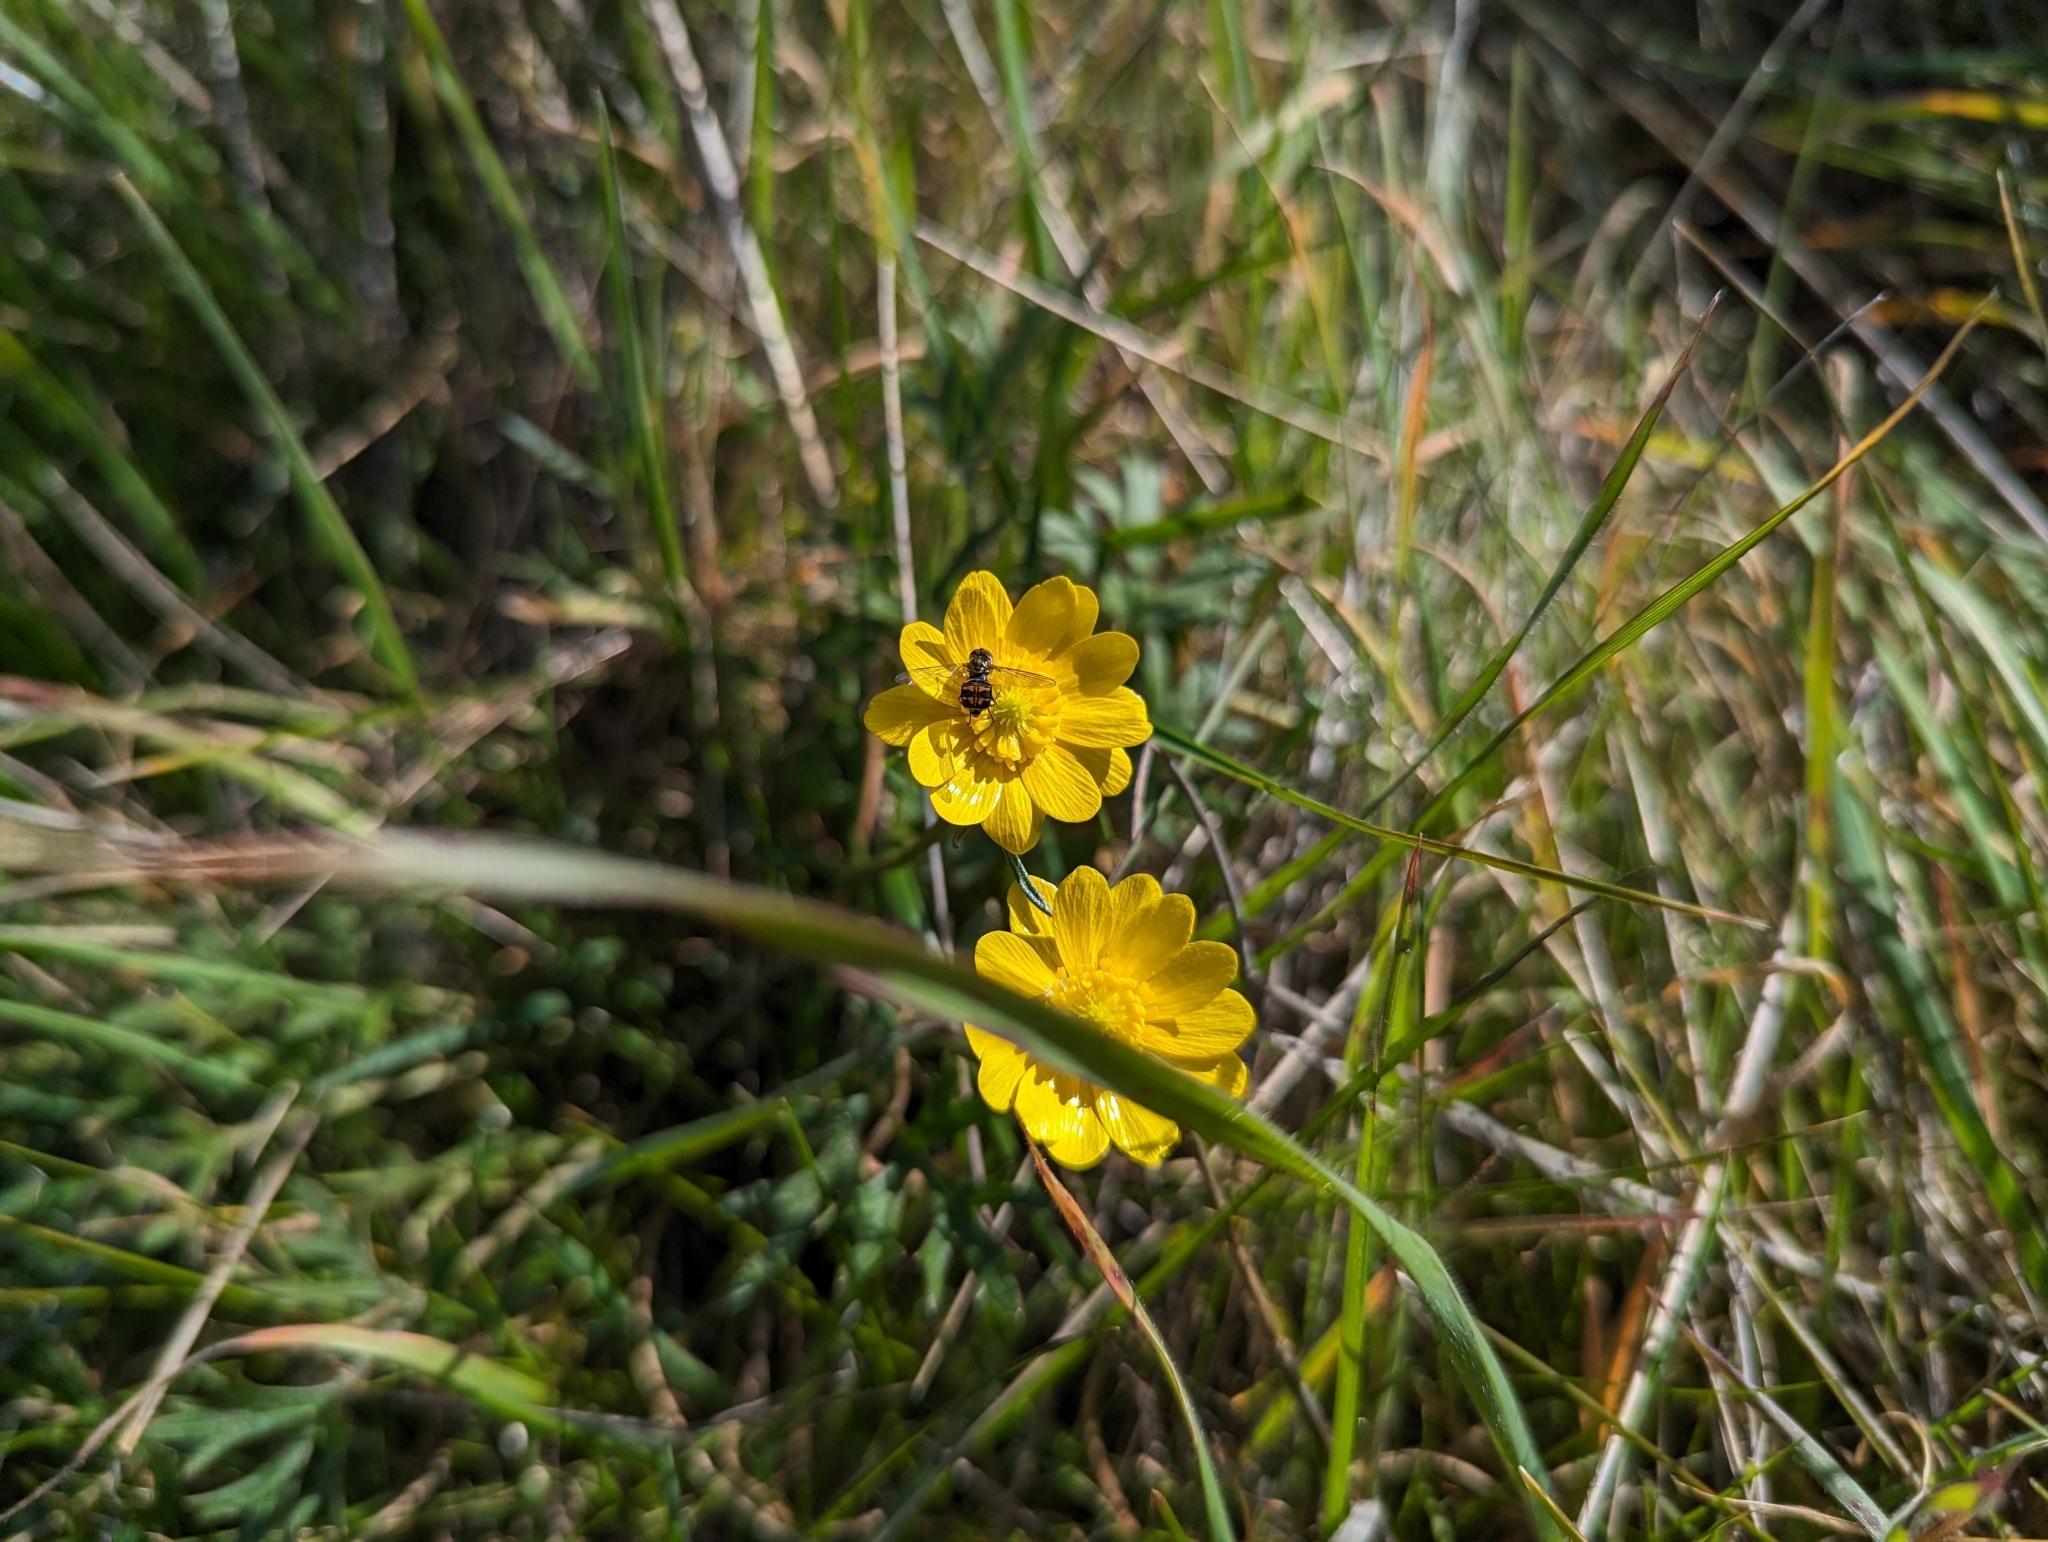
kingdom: Animalia
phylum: Arthropoda
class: Insecta
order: Diptera
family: Syrphidae
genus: Toxomerus
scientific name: Toxomerus occidentalis
